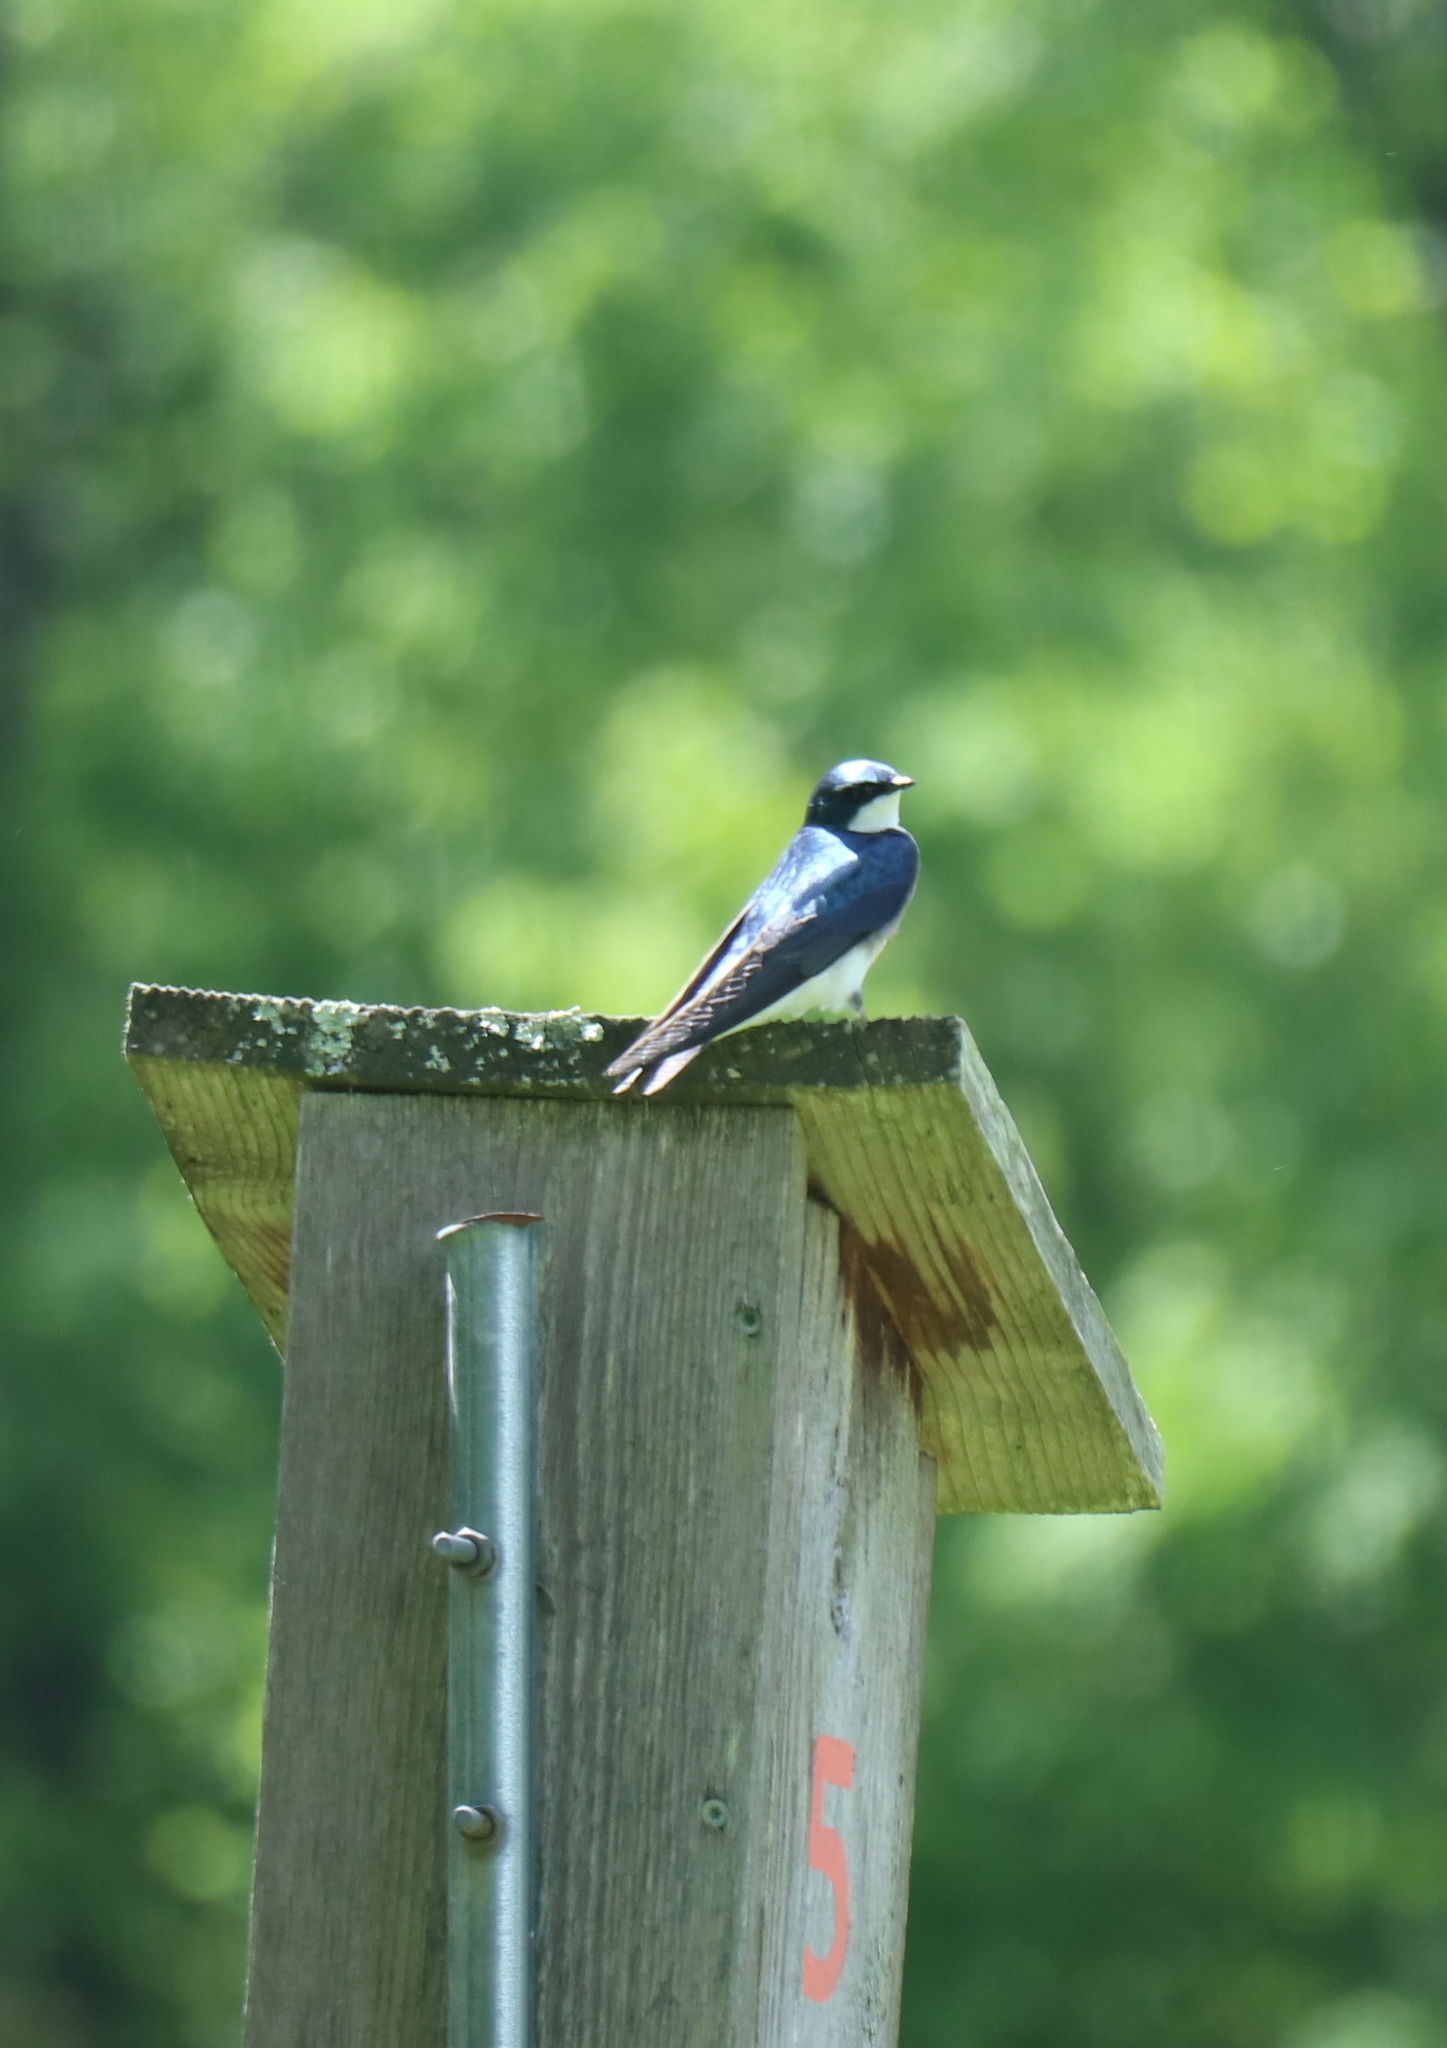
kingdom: Animalia
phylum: Chordata
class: Aves
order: Passeriformes
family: Hirundinidae
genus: Tachycineta
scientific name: Tachycineta bicolor
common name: Tree swallow
